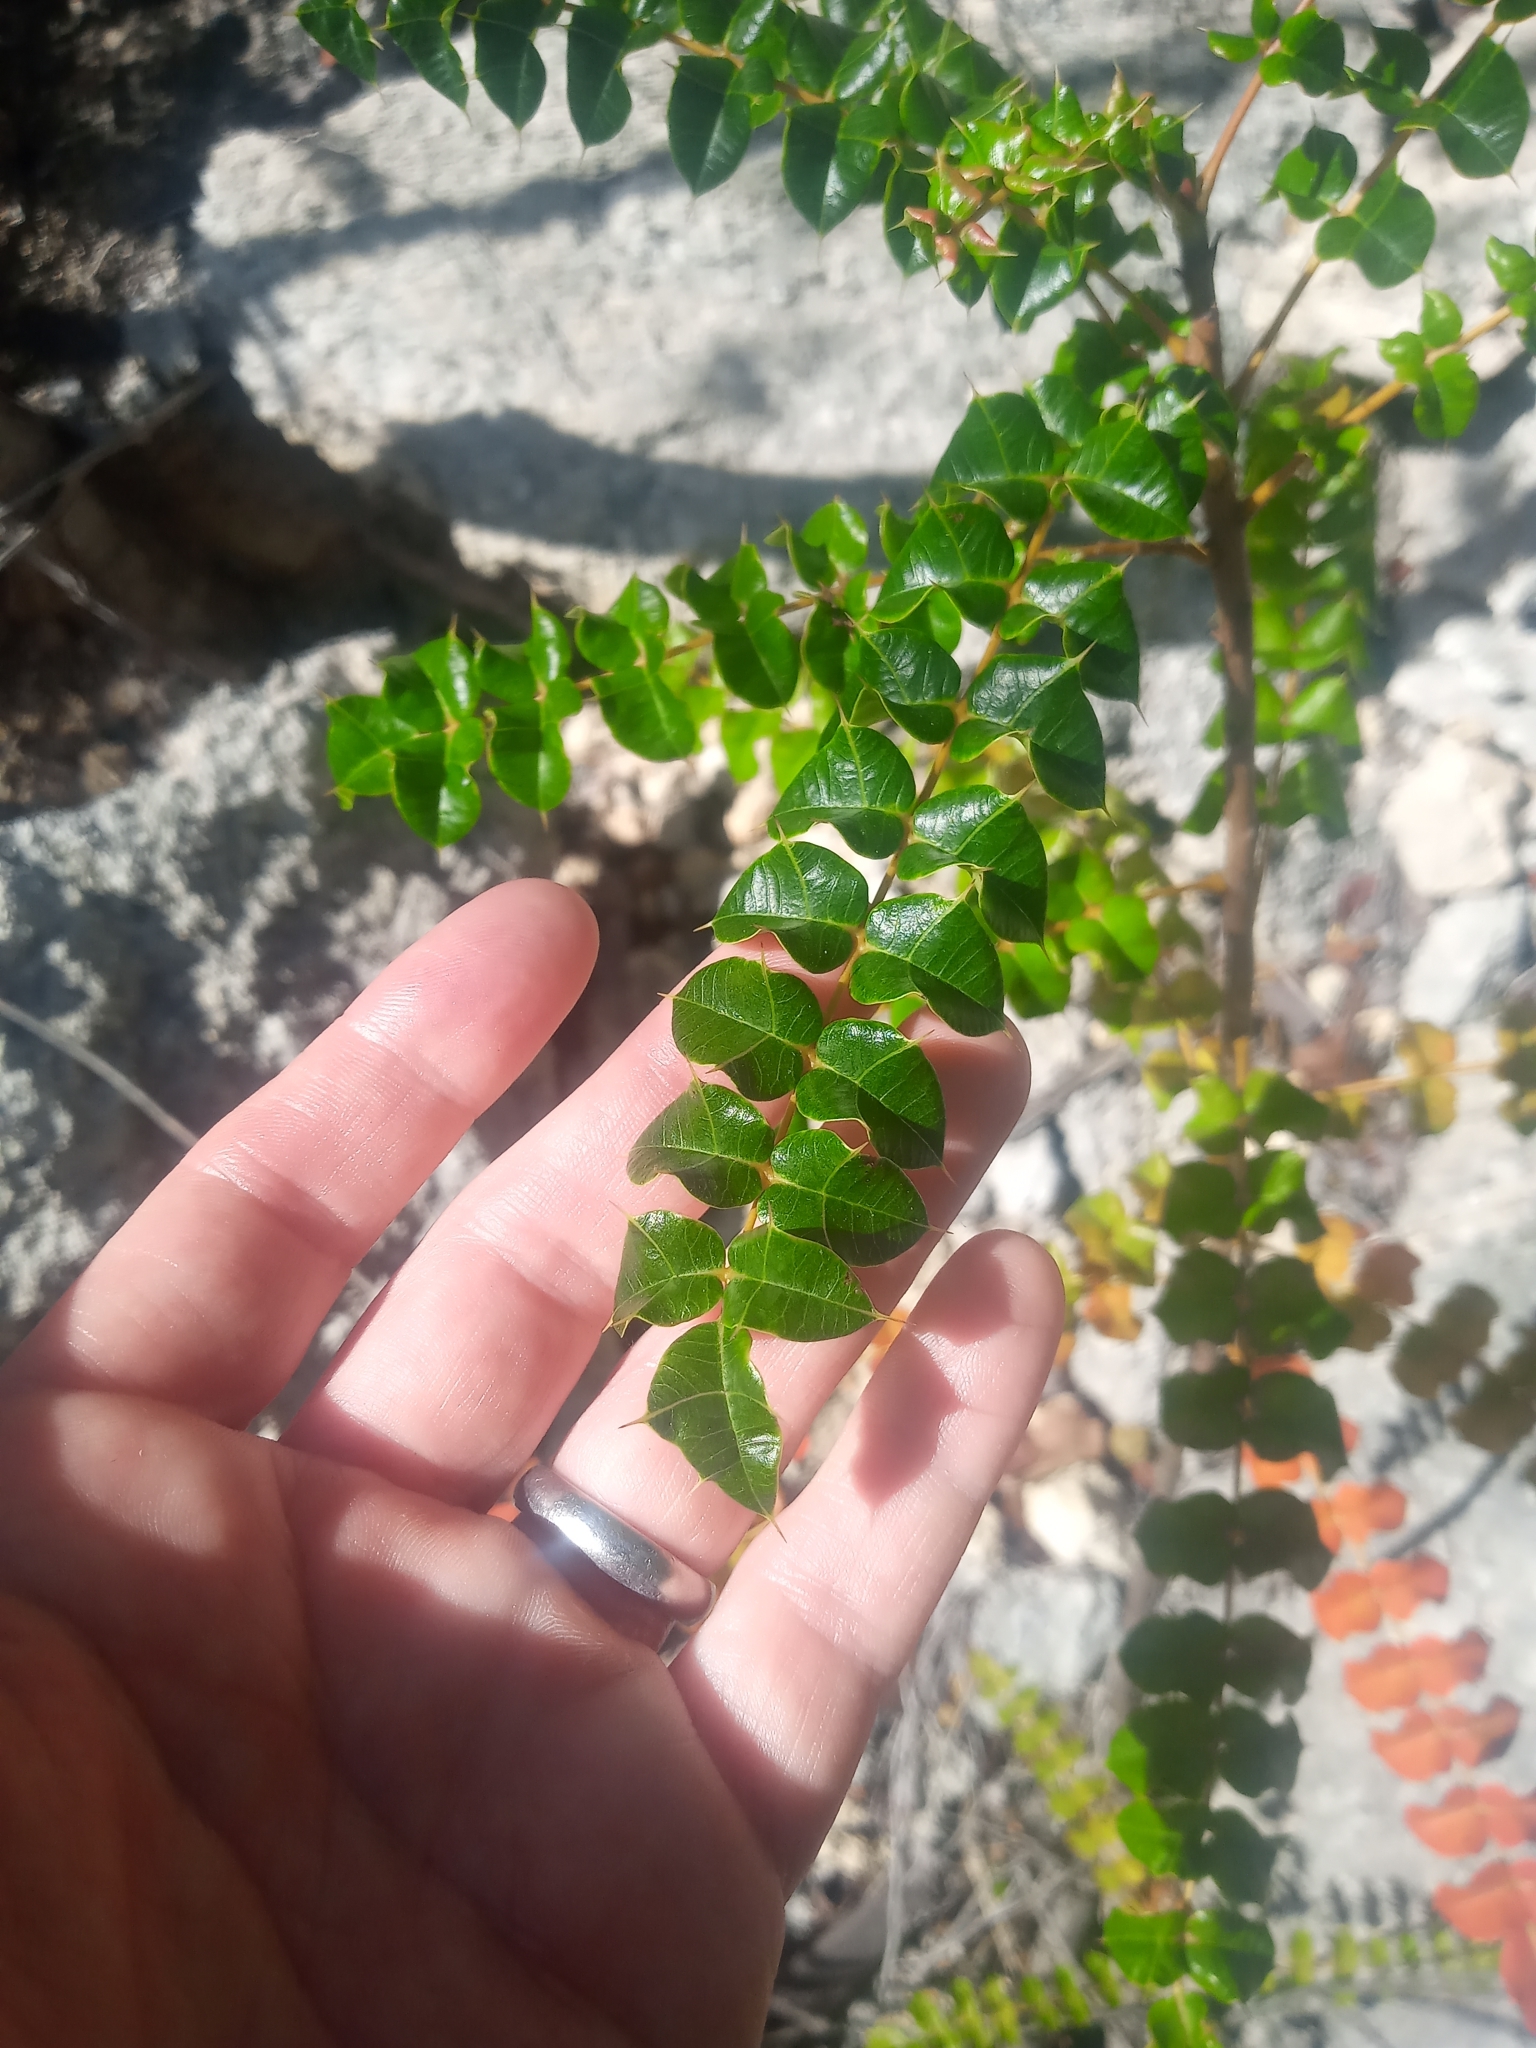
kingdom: Plantae
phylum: Tracheophyta
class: Magnoliopsida
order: Sapindales
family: Anacardiaceae
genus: Comocladia
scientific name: Comocladia dodonaea
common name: Poison ash
